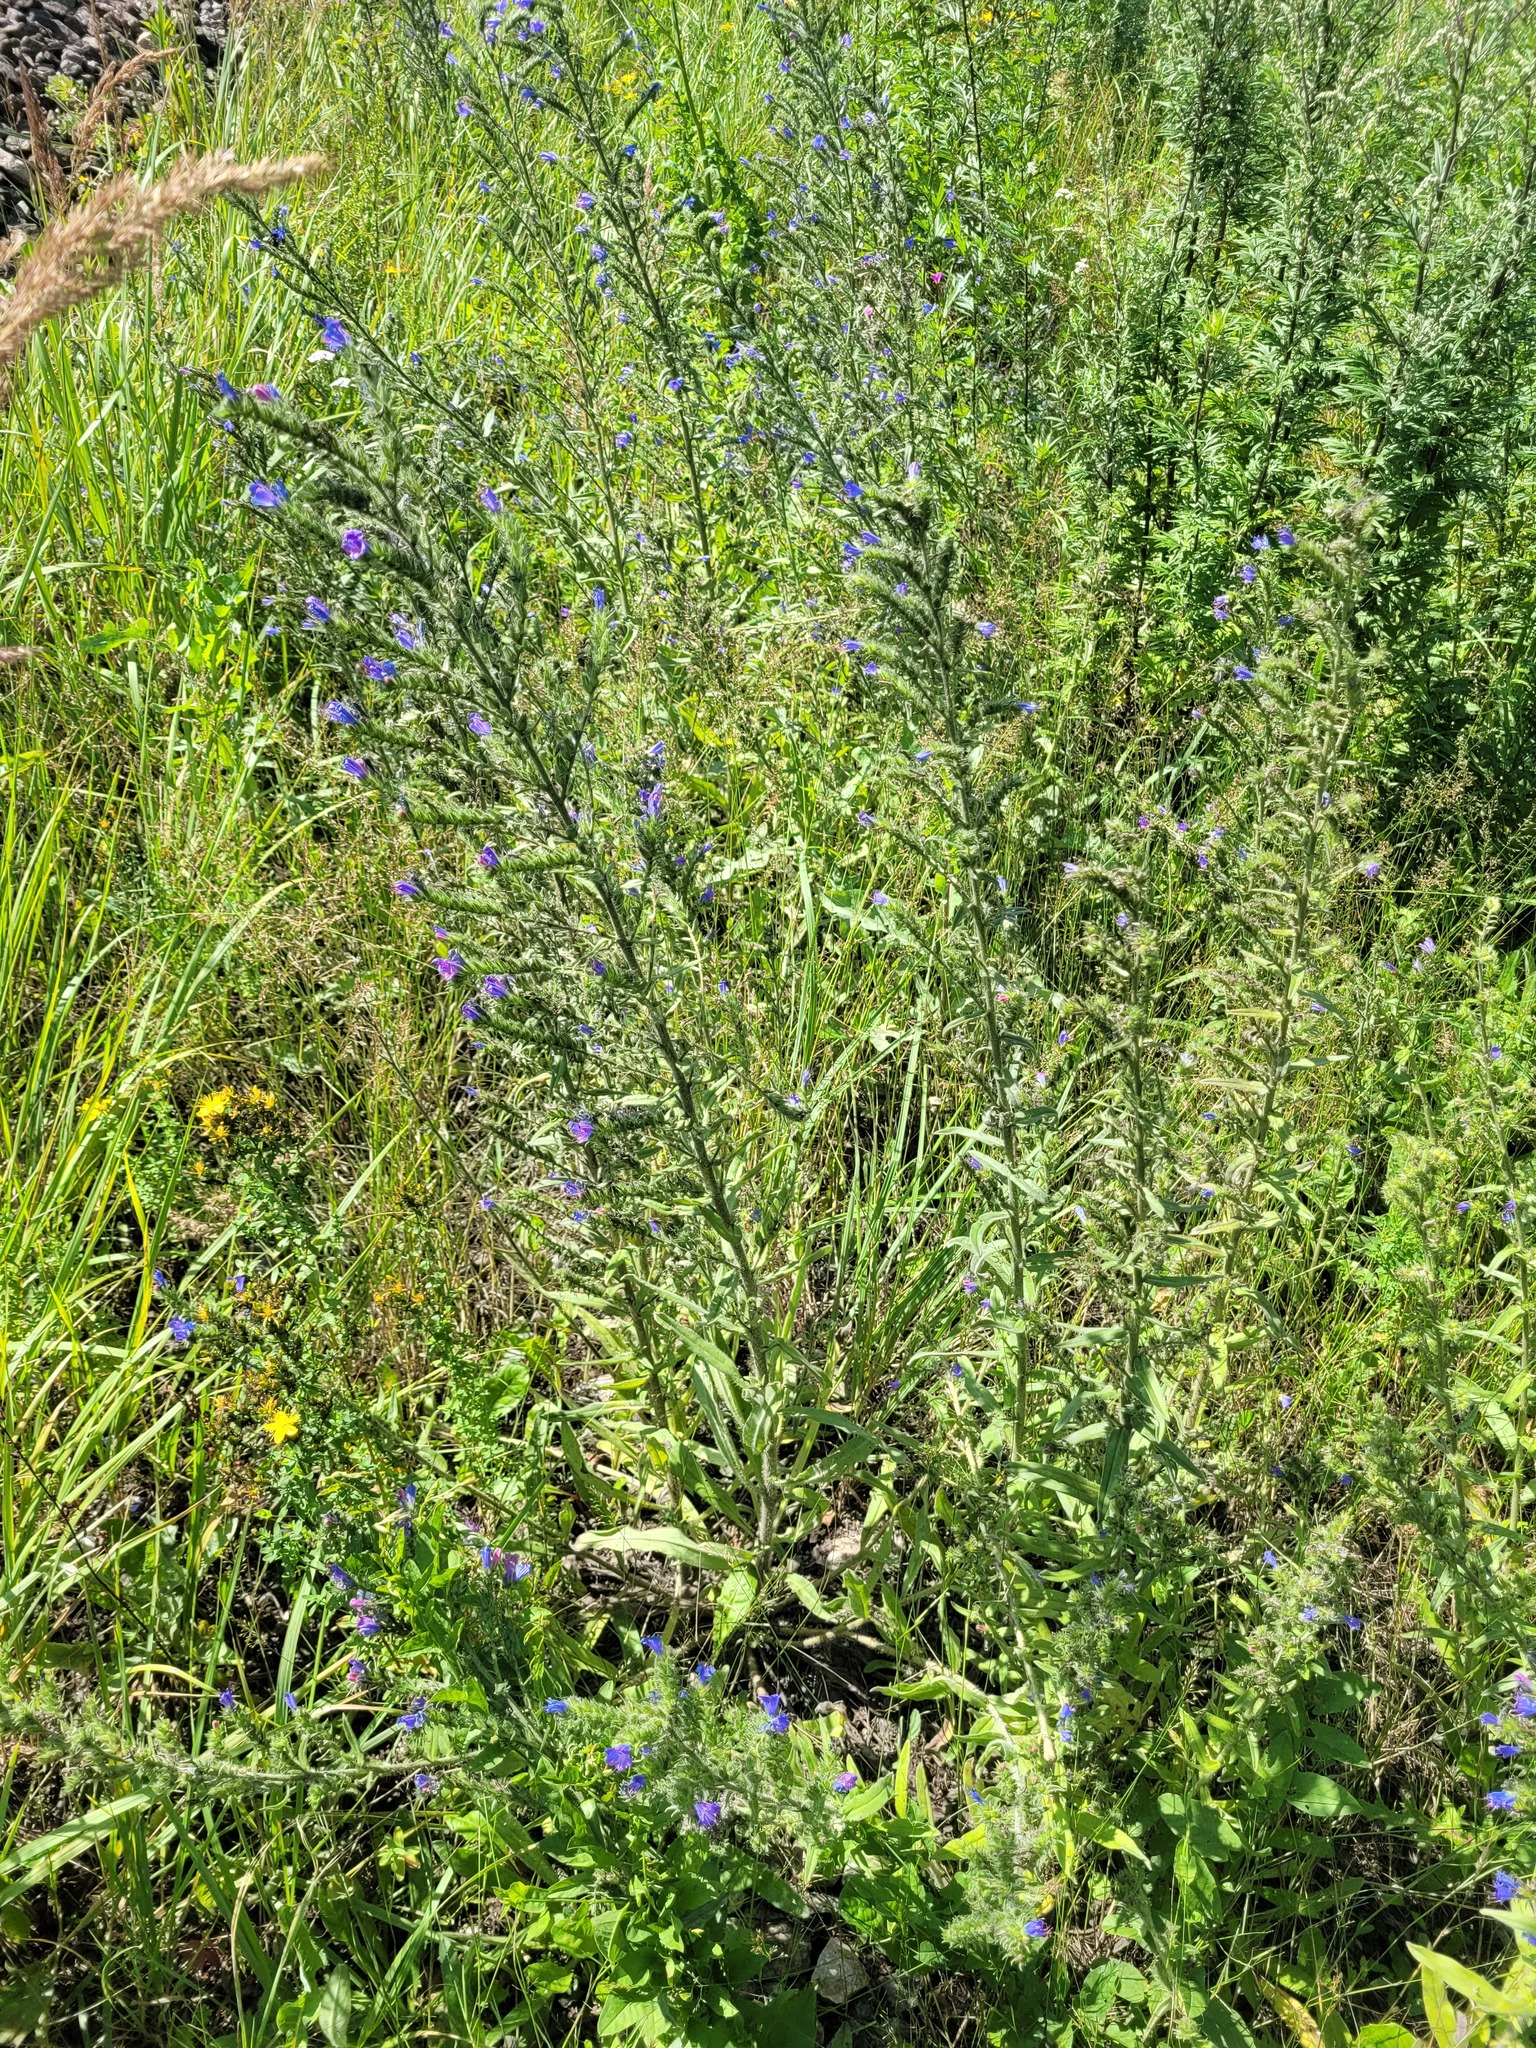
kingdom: Plantae
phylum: Tracheophyta
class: Magnoliopsida
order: Boraginales
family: Boraginaceae
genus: Echium
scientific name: Echium vulgare
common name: Common viper's bugloss
